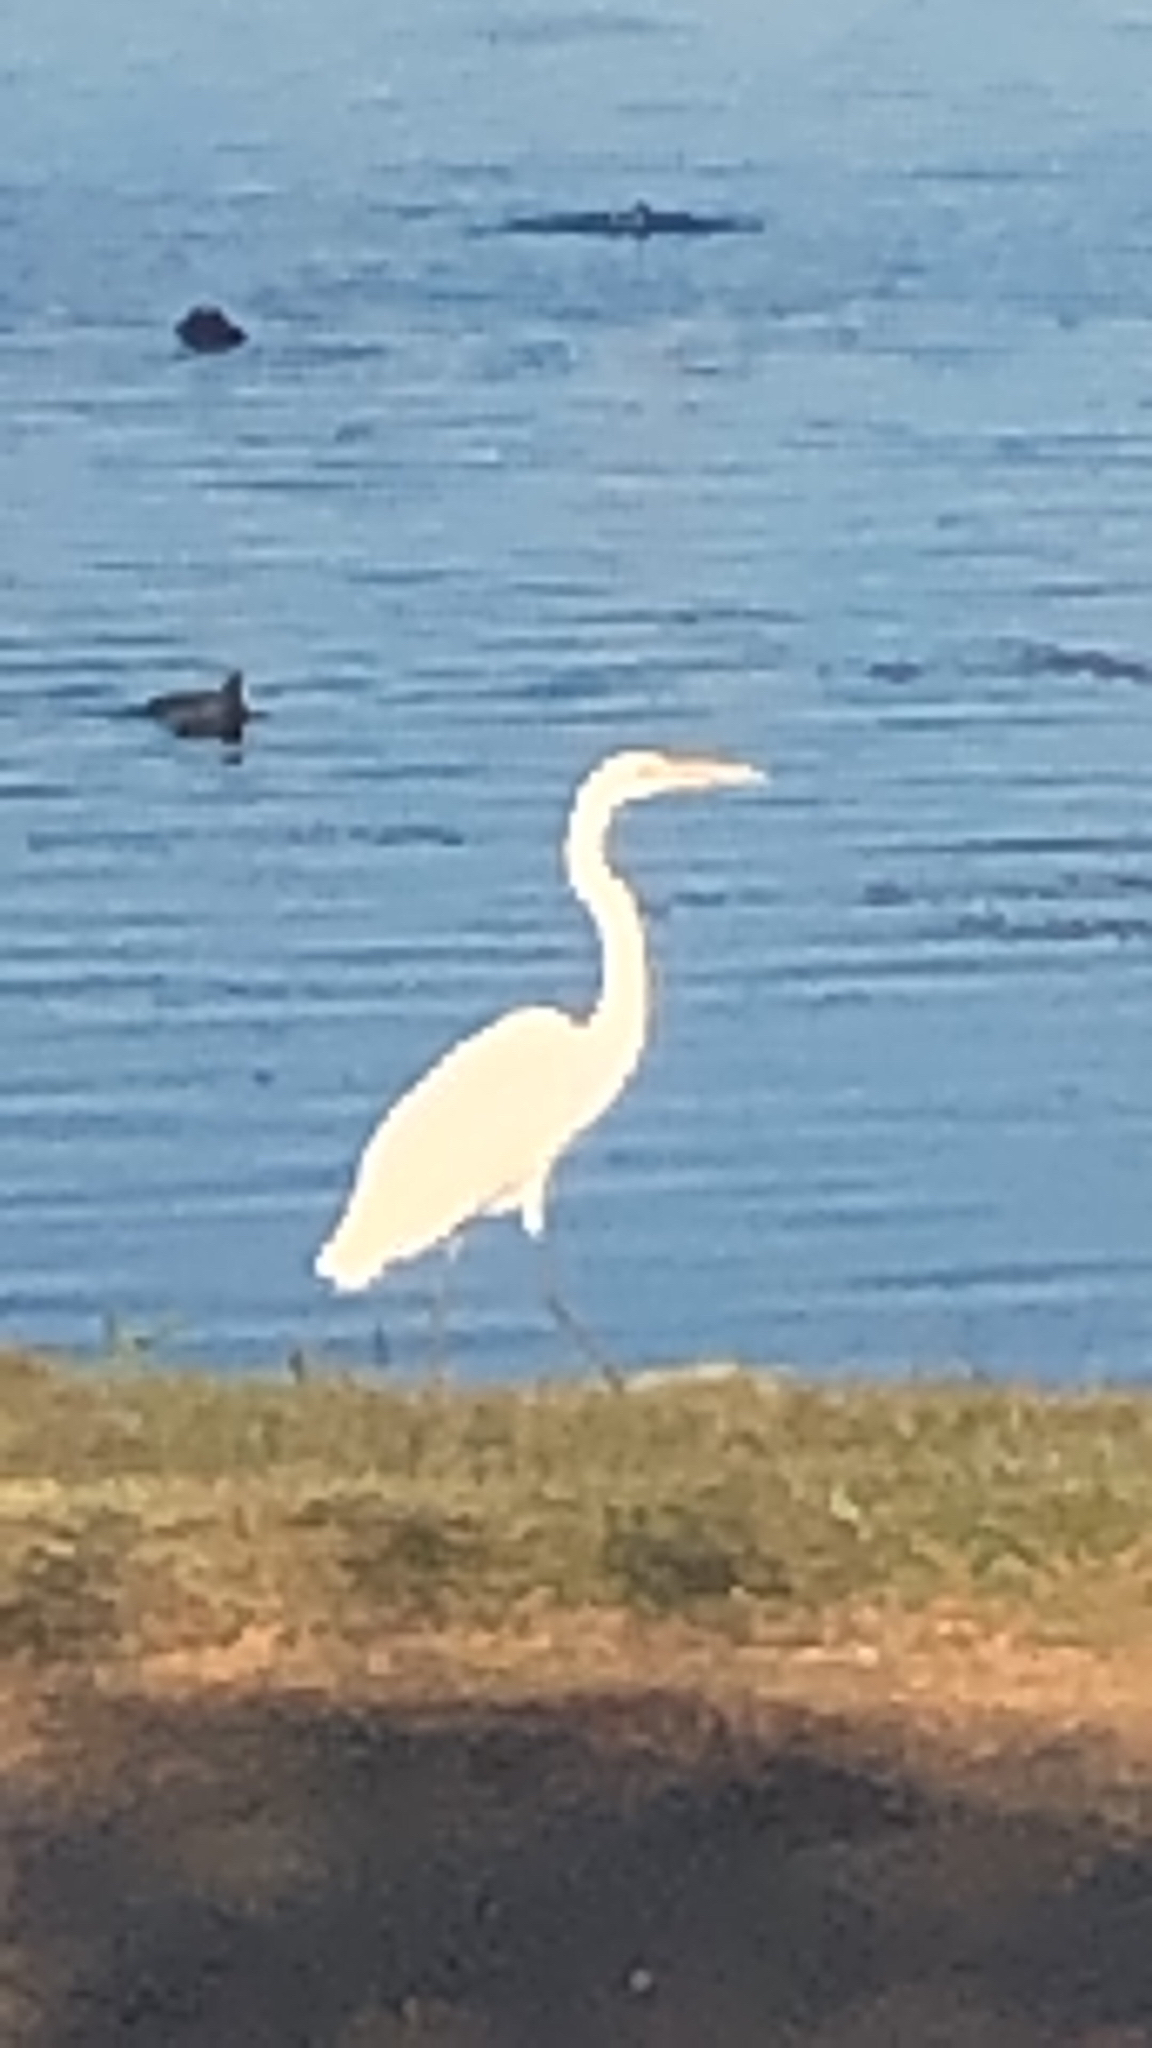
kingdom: Animalia
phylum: Chordata
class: Aves
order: Pelecaniformes
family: Ardeidae
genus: Ardea
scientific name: Ardea alba
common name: Great egret
